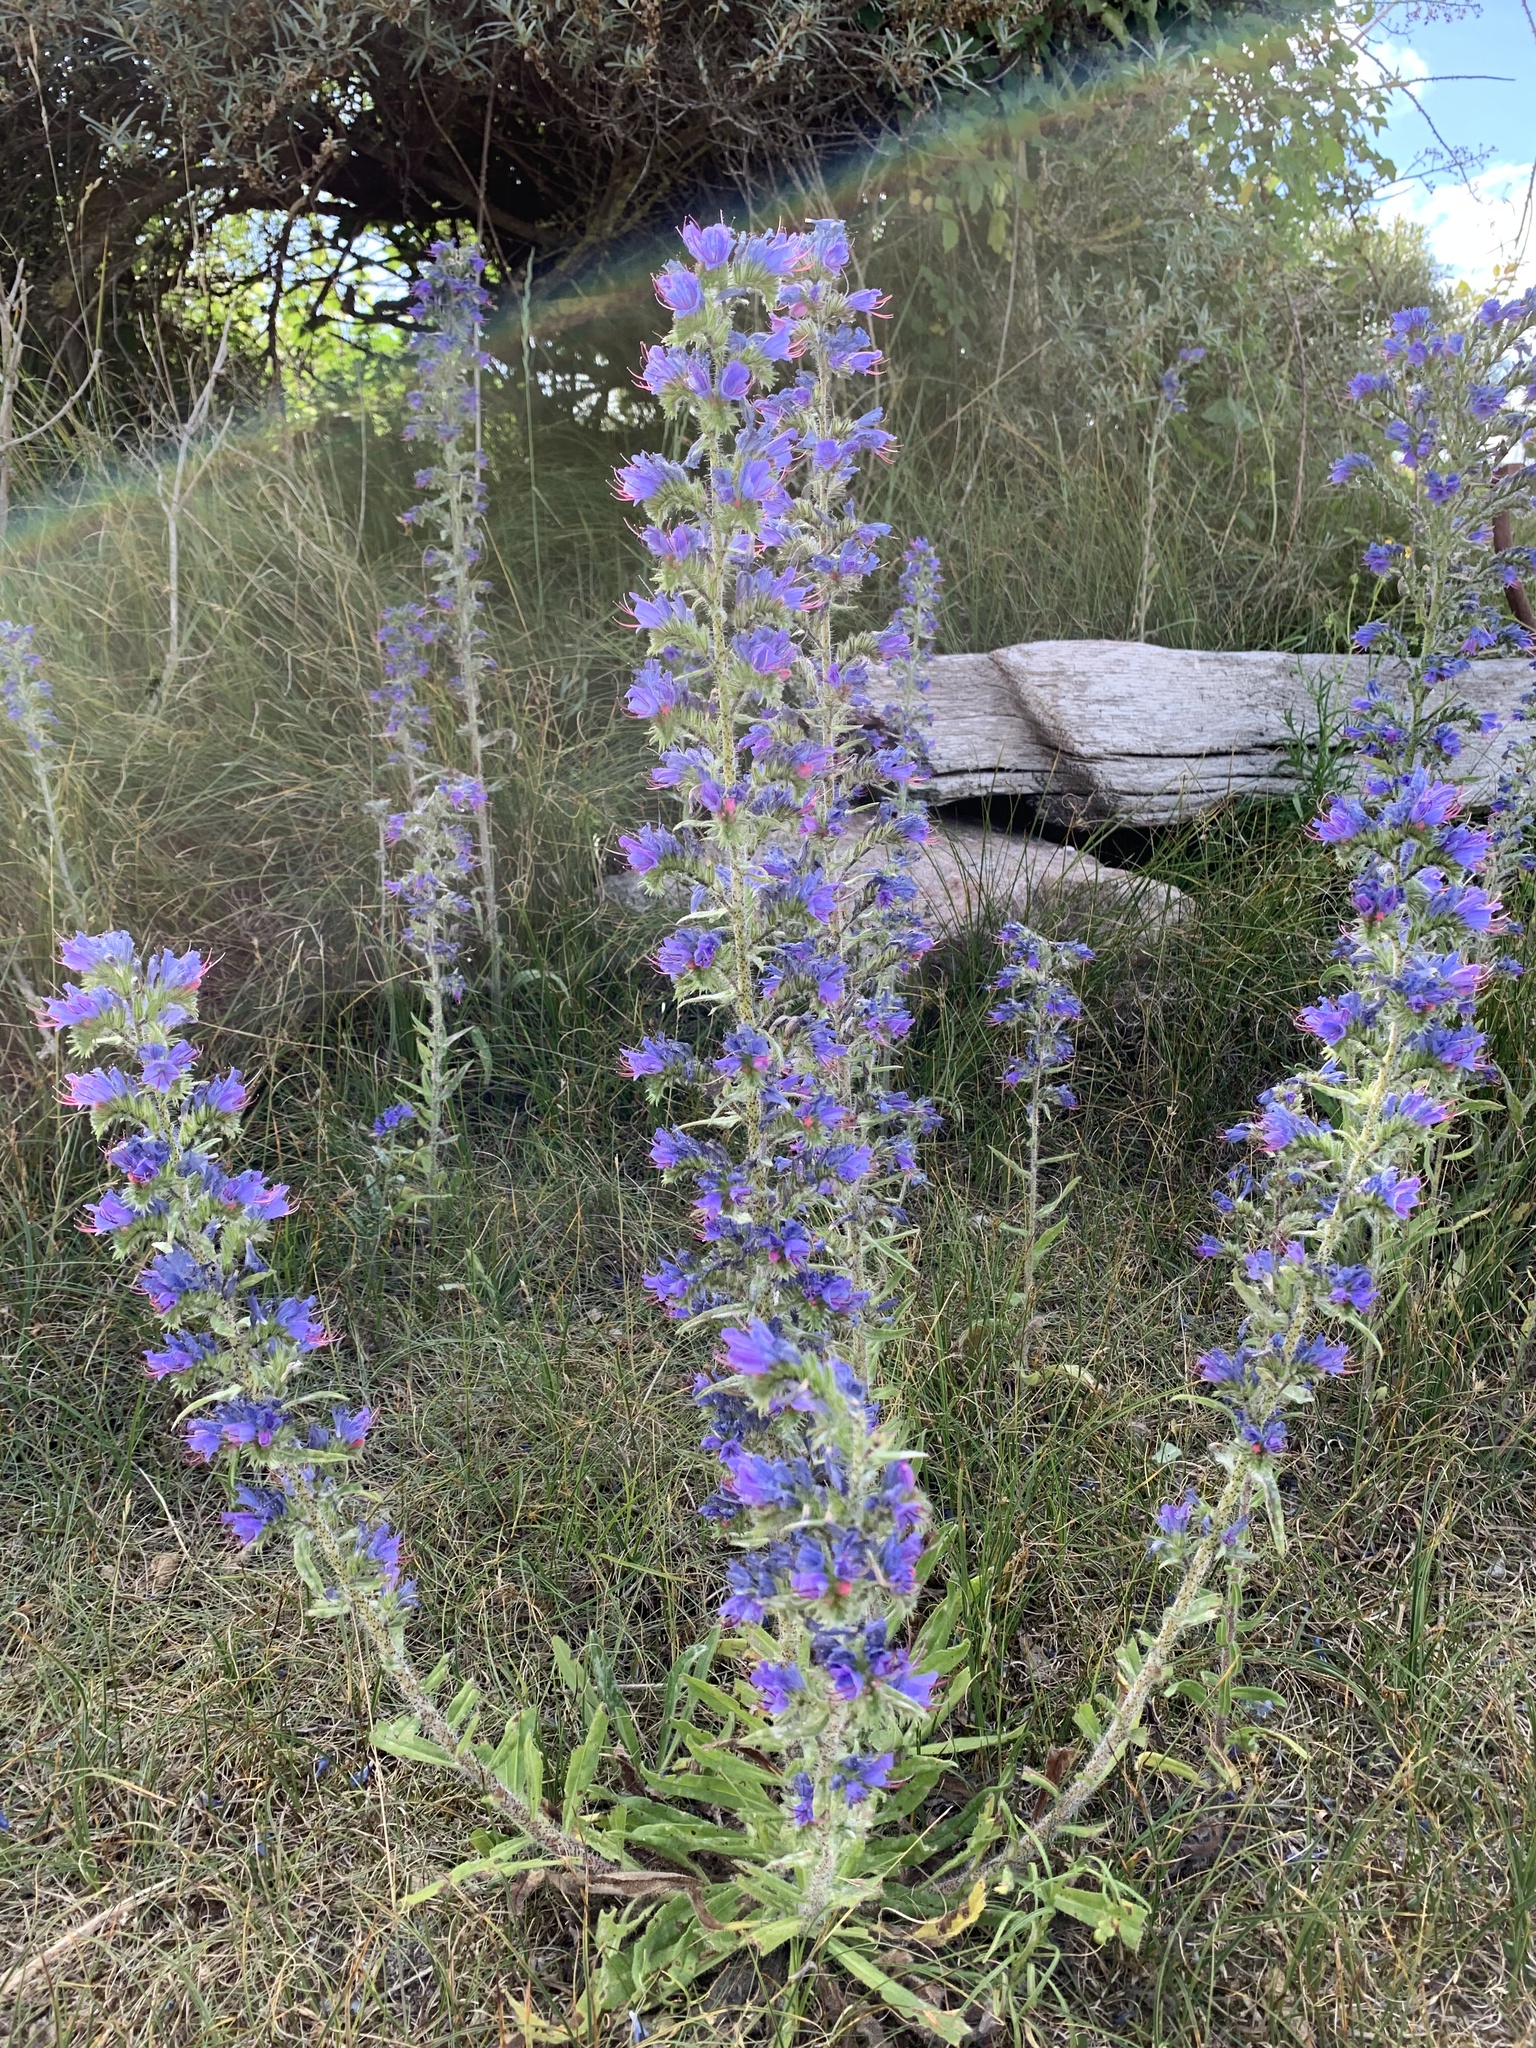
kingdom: Plantae
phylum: Tracheophyta
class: Magnoliopsida
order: Boraginales
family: Boraginaceae
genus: Echium
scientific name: Echium vulgare
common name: Common viper's bugloss
